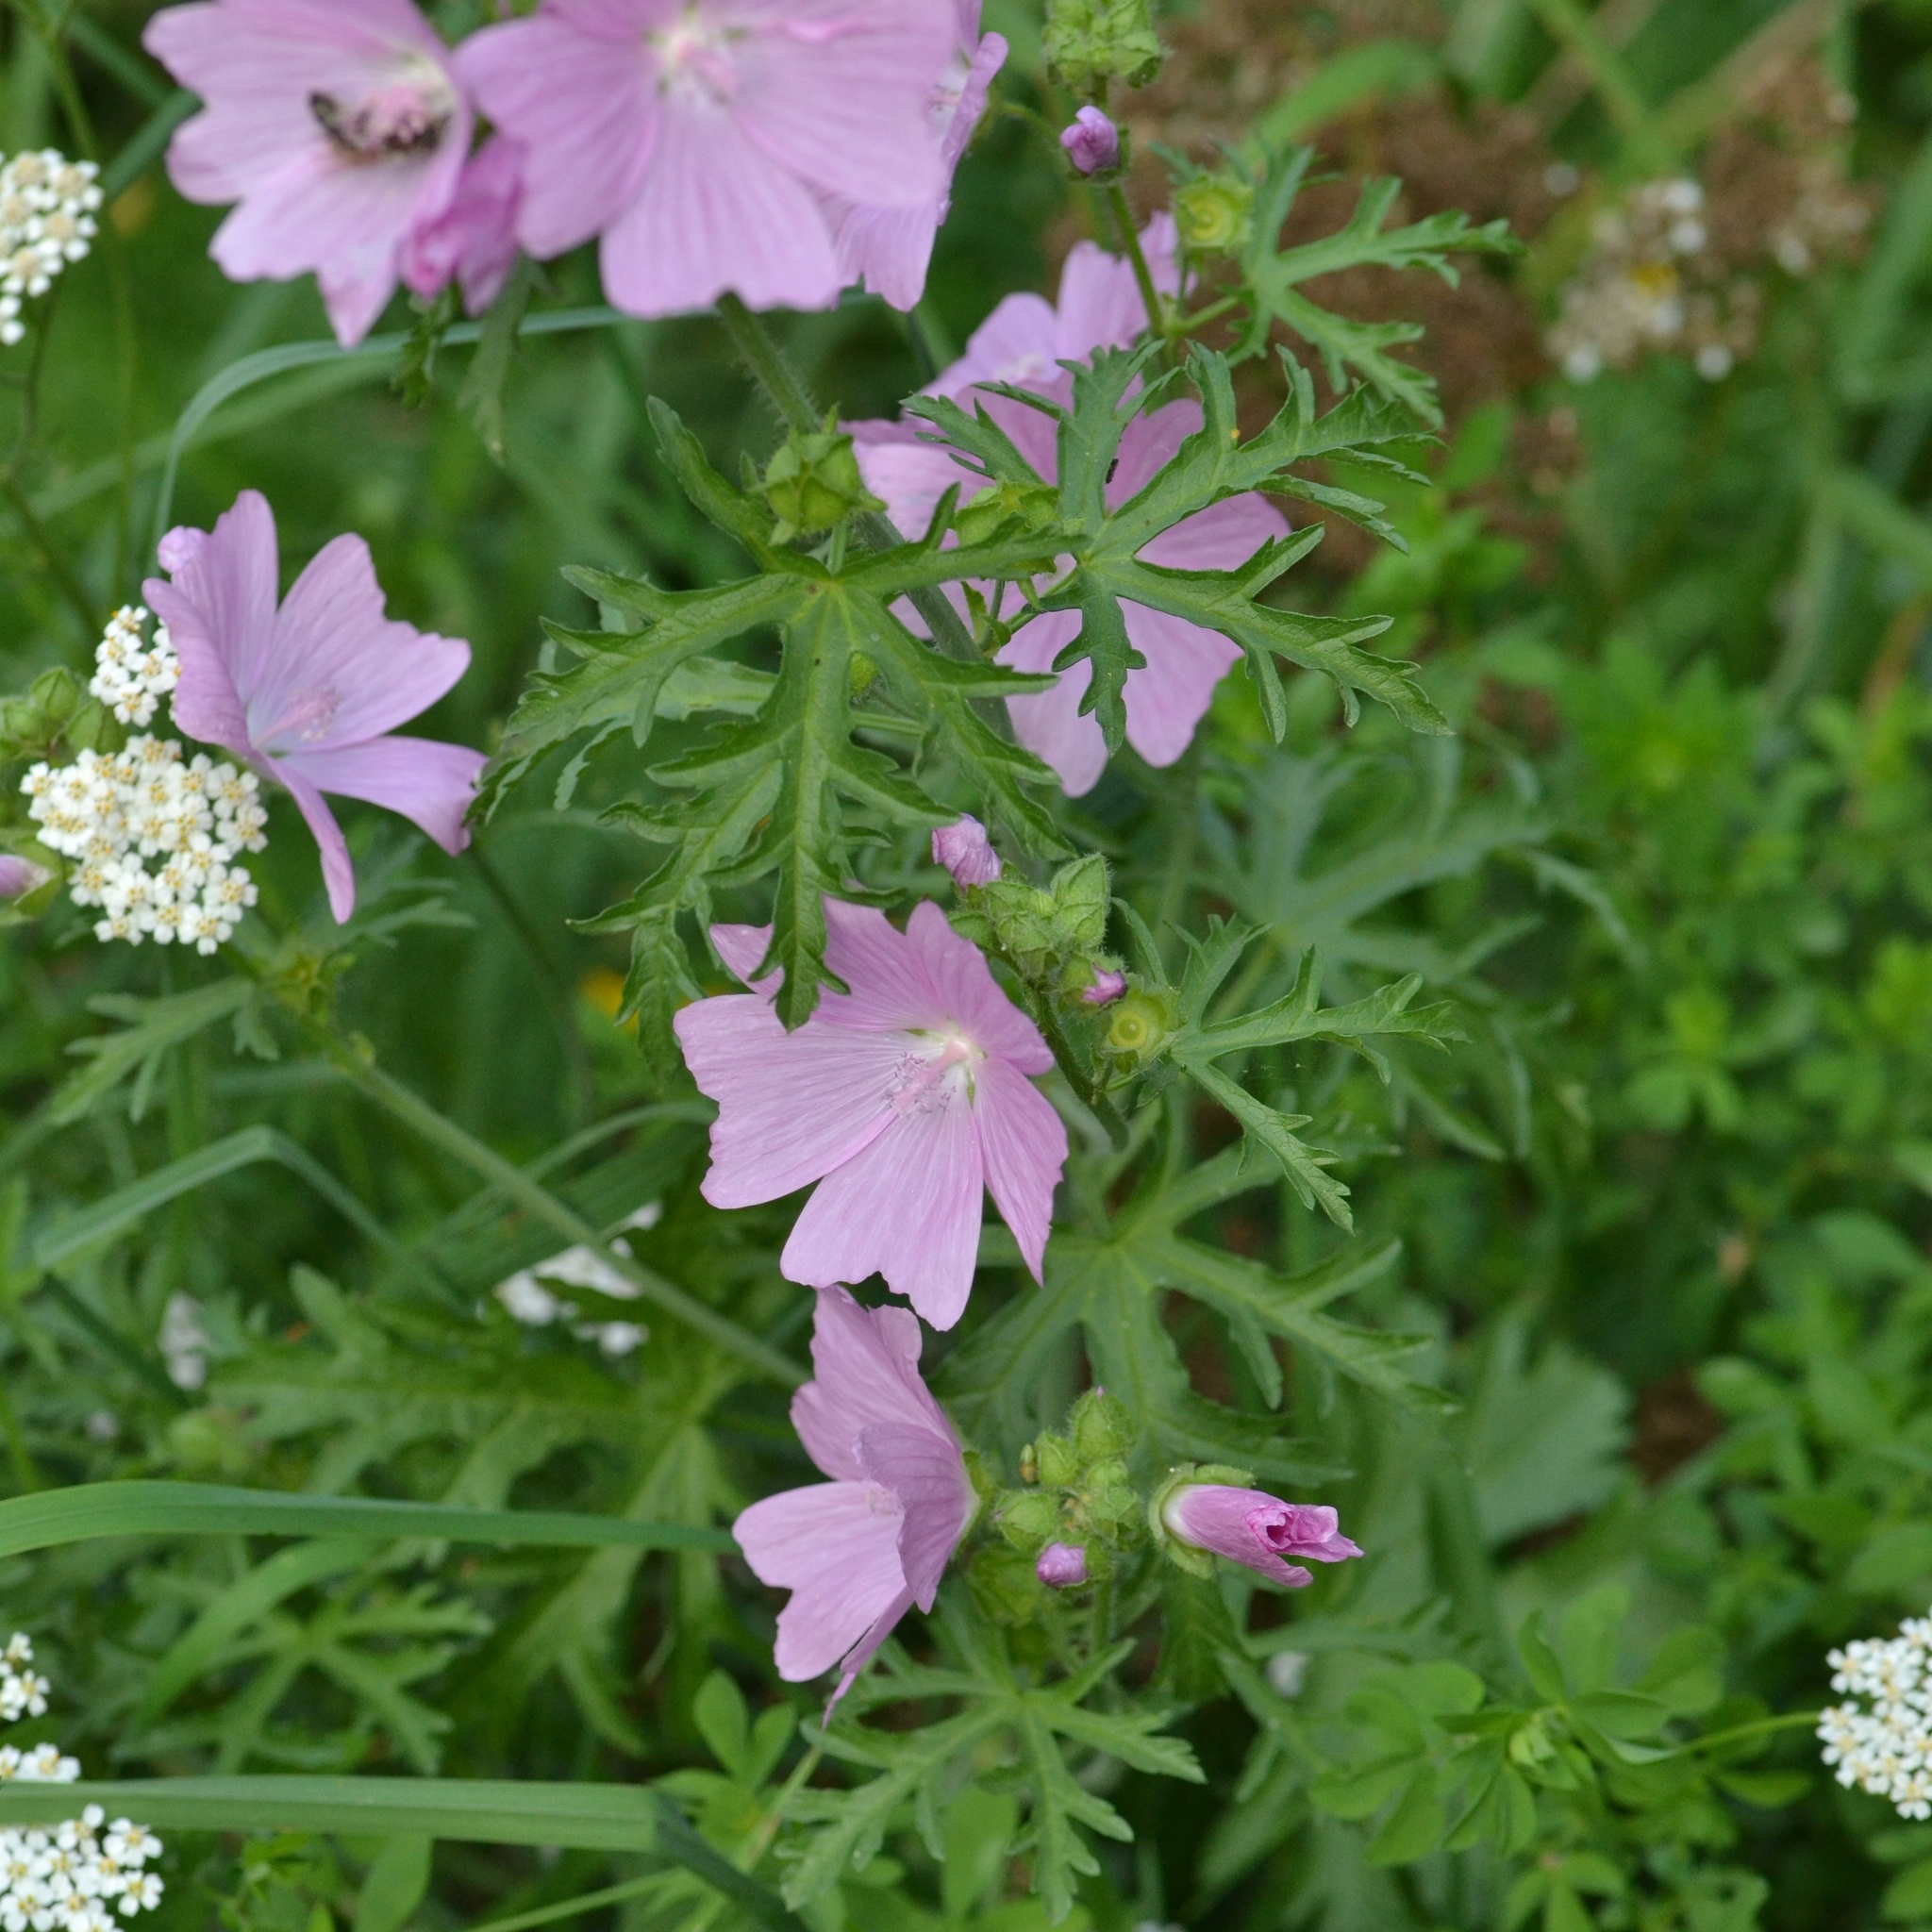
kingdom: Plantae
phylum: Tracheophyta
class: Magnoliopsida
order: Malvales
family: Malvaceae
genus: Malva
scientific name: Malva moschata
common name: Musk mallow
